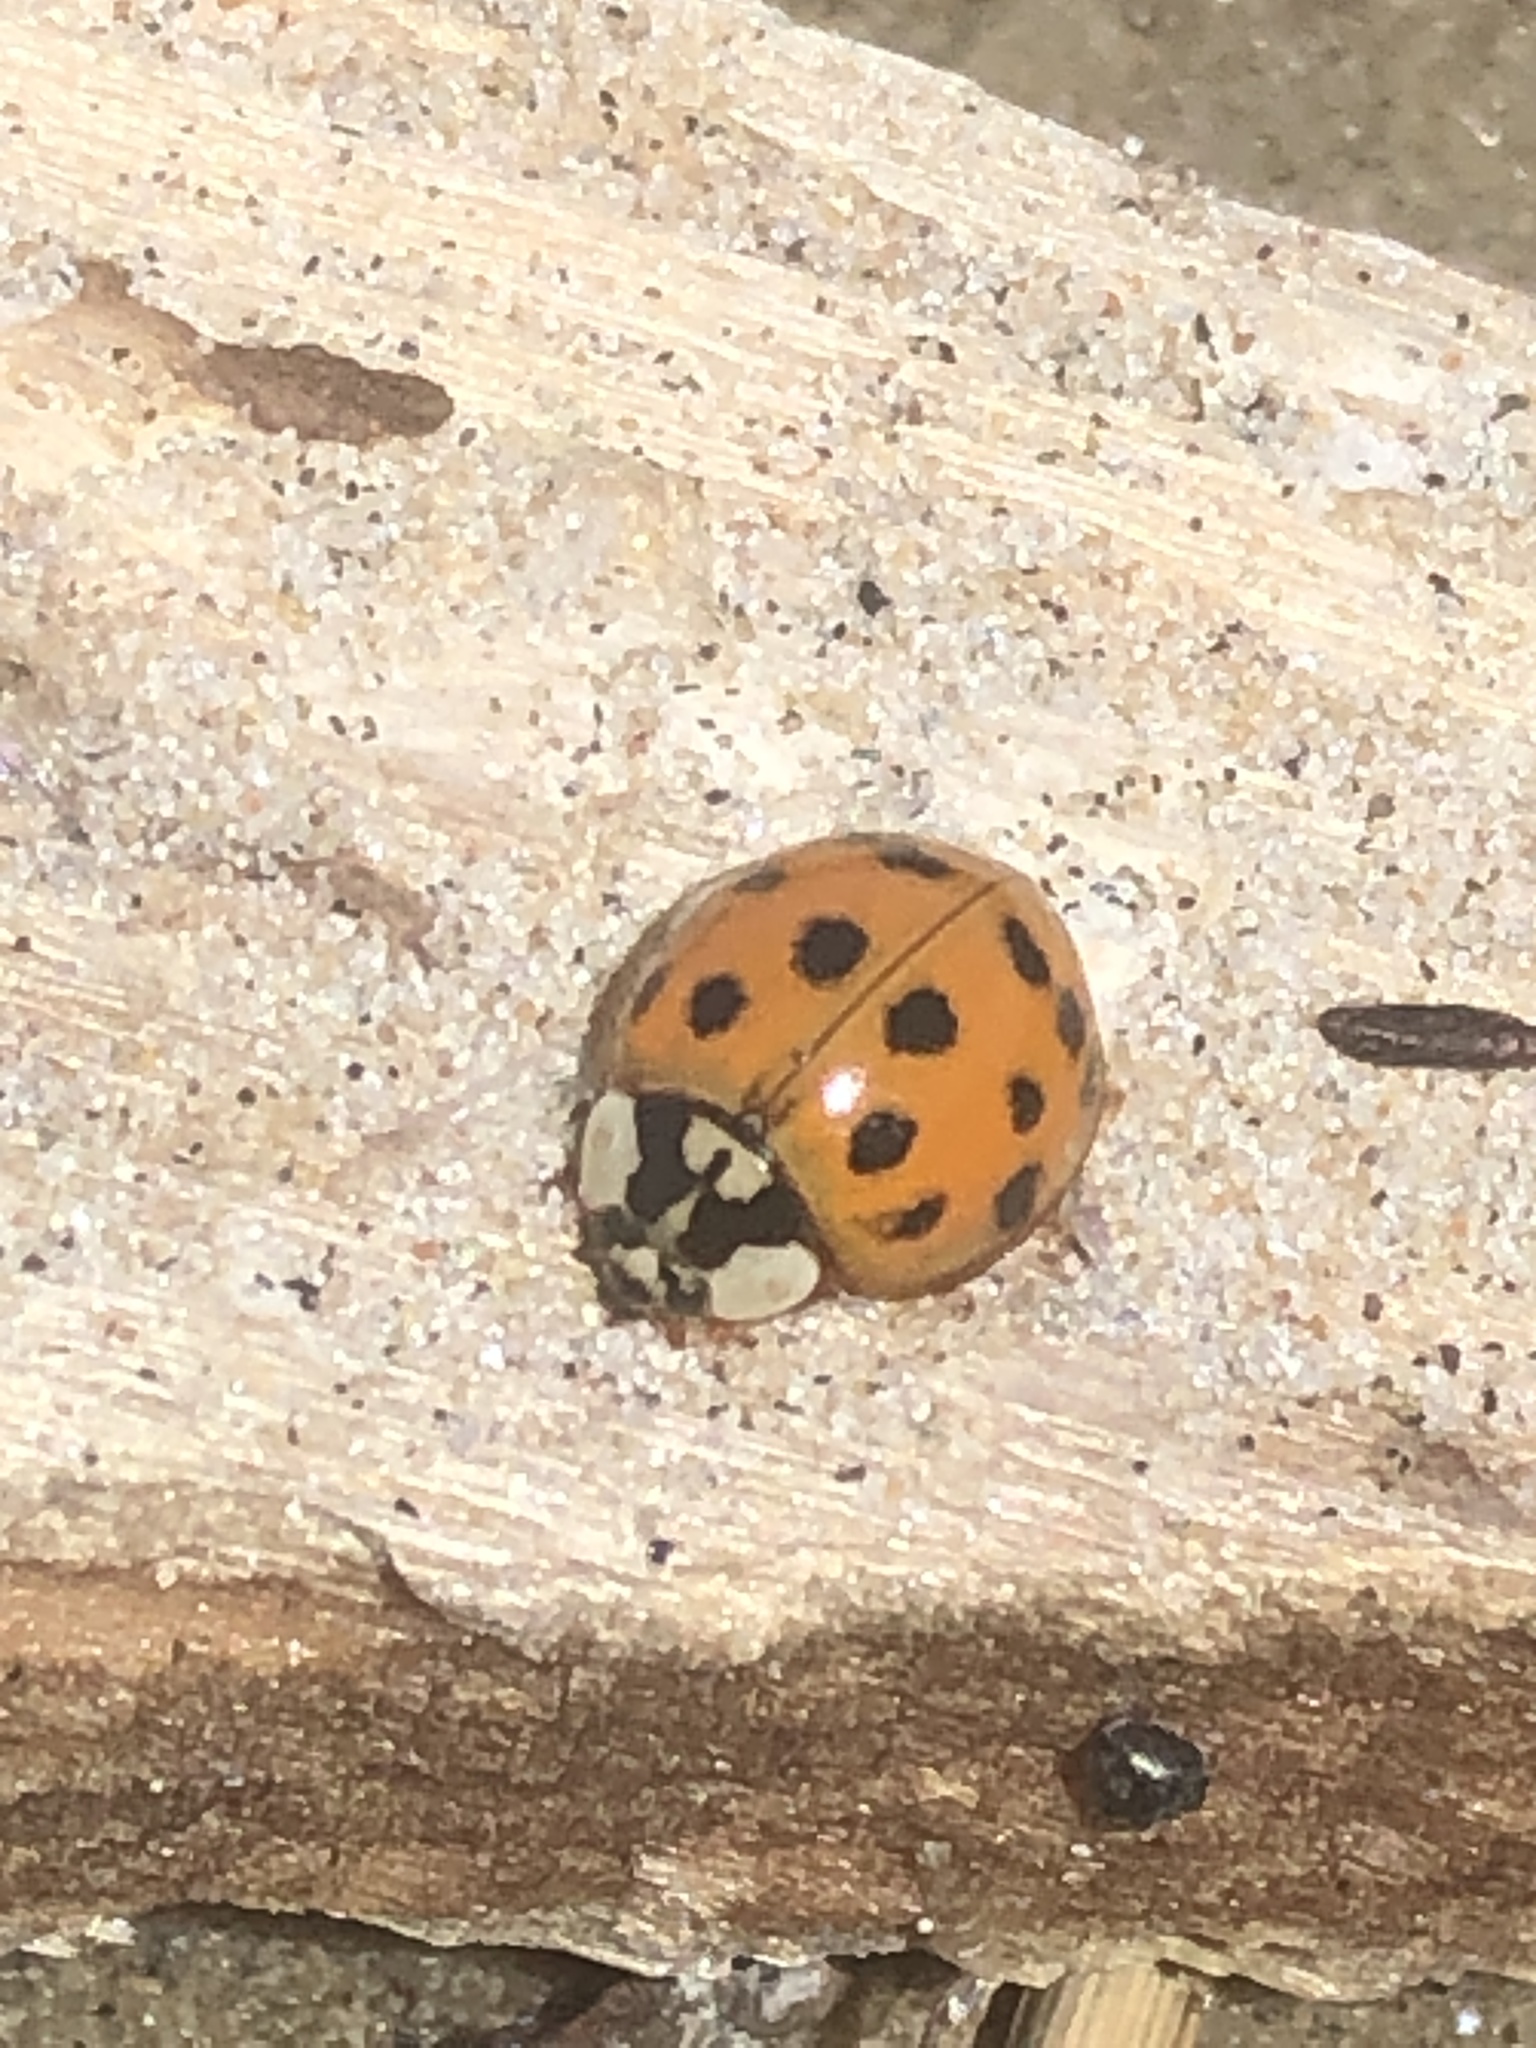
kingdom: Animalia
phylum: Arthropoda
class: Insecta
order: Coleoptera
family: Coccinellidae
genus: Harmonia
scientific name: Harmonia axyridis
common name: Harlequin ladybird
